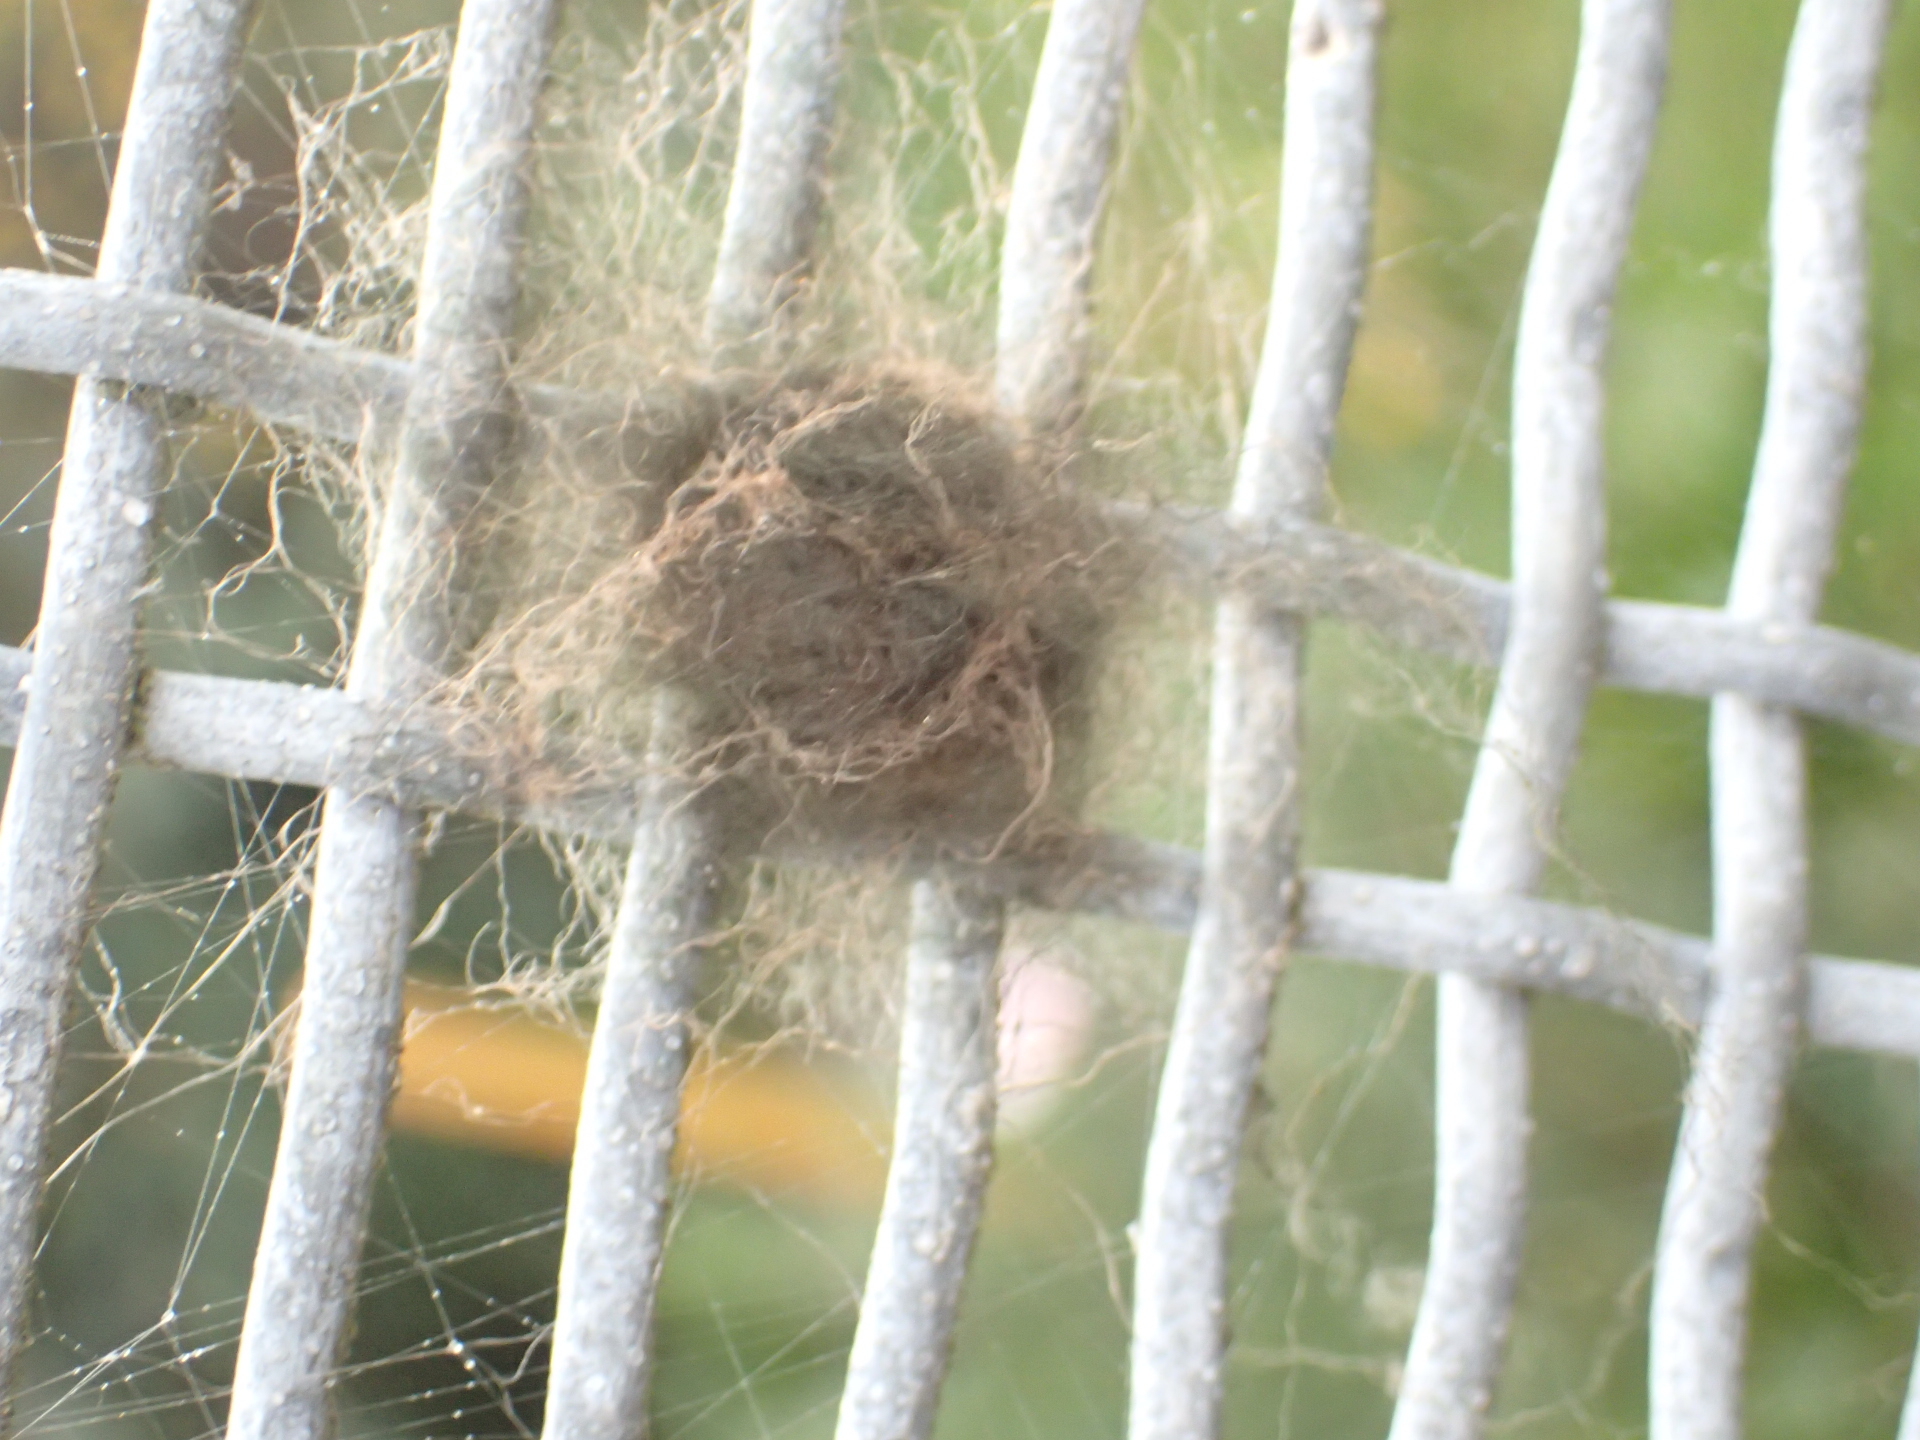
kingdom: Animalia
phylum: Arthropoda
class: Arachnida
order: Araneae
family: Araneidae
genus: Eriophora
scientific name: Eriophora pustulosa
